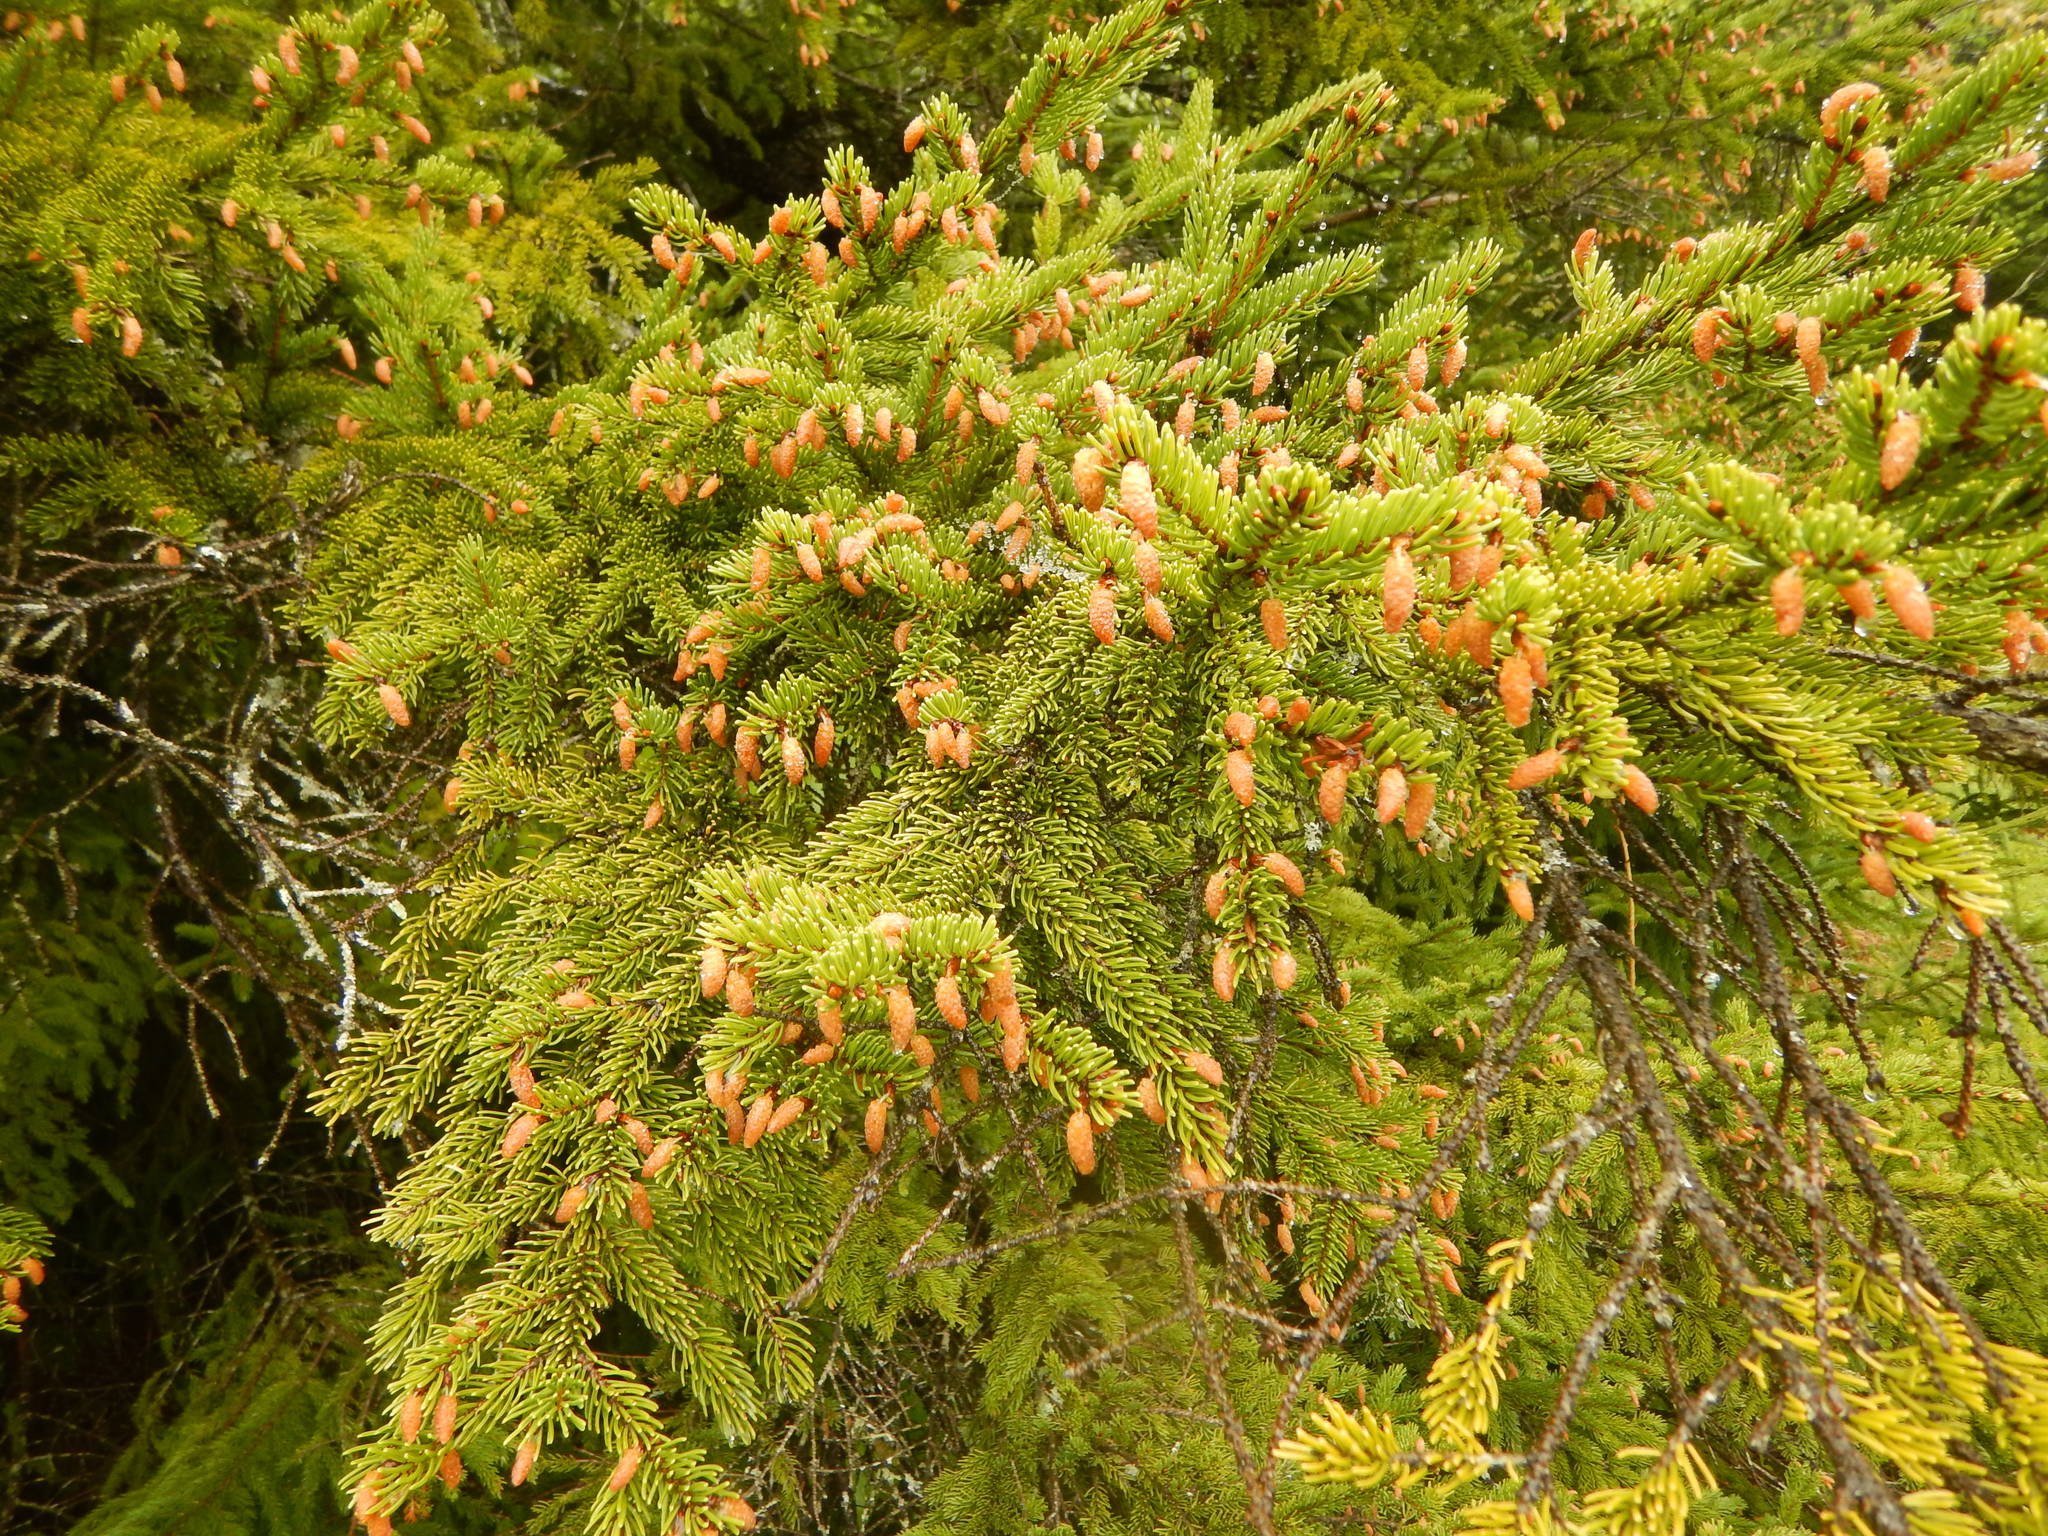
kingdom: Plantae
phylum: Tracheophyta
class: Pinopsida
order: Pinales
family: Pinaceae
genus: Picea
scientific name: Picea rubens
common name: Red spruce
